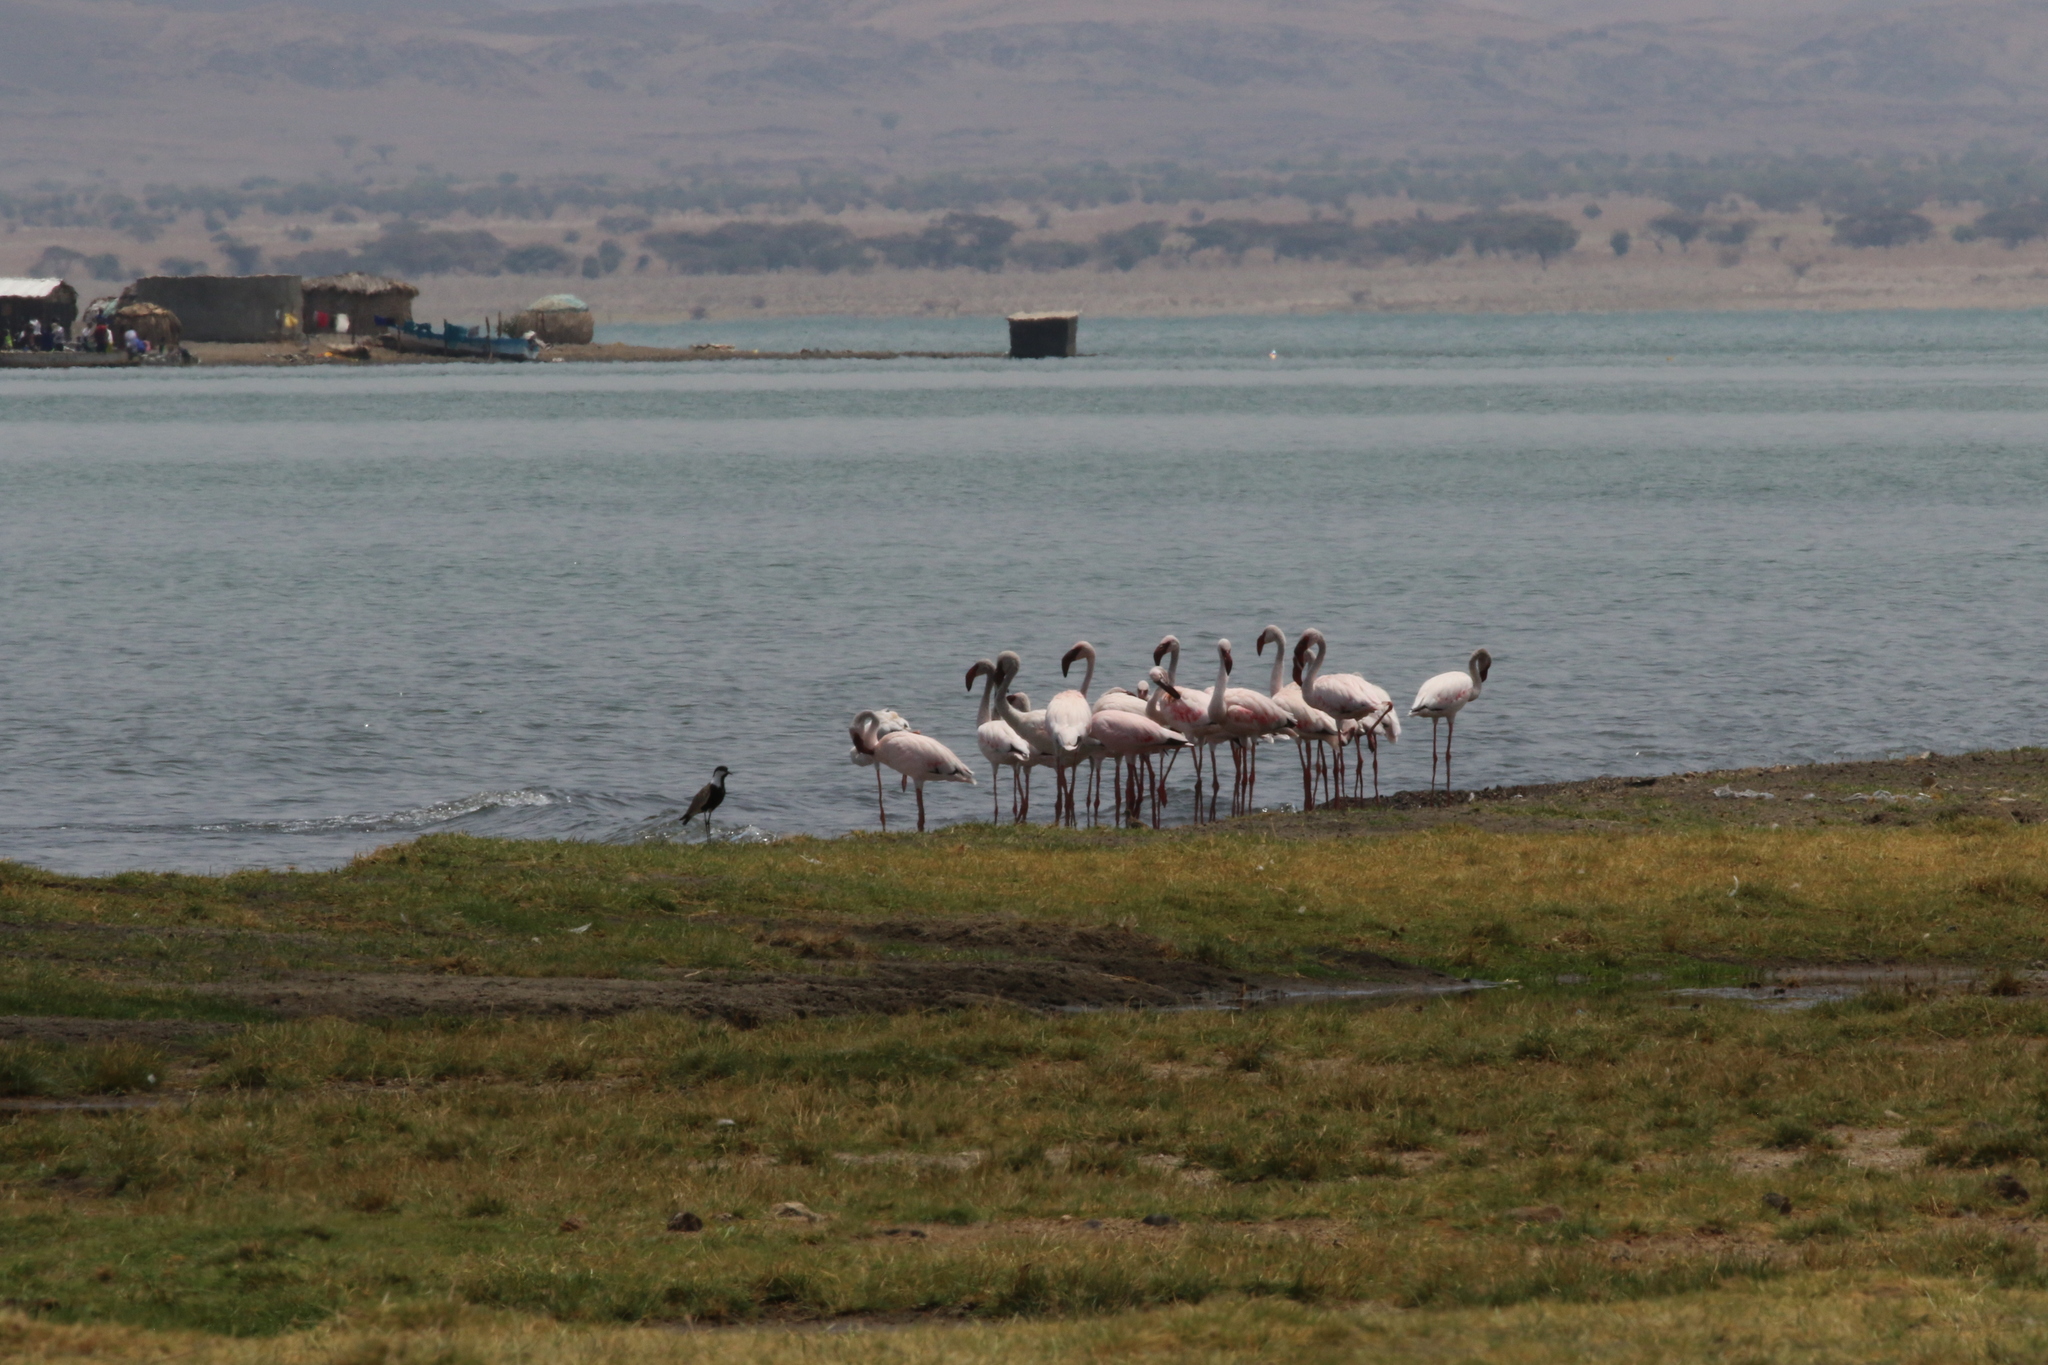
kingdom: Animalia
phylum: Chordata
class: Aves
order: Phoenicopteriformes
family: Phoenicopteridae
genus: Phoeniconaias
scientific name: Phoeniconaias minor
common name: Lesser flamingo
